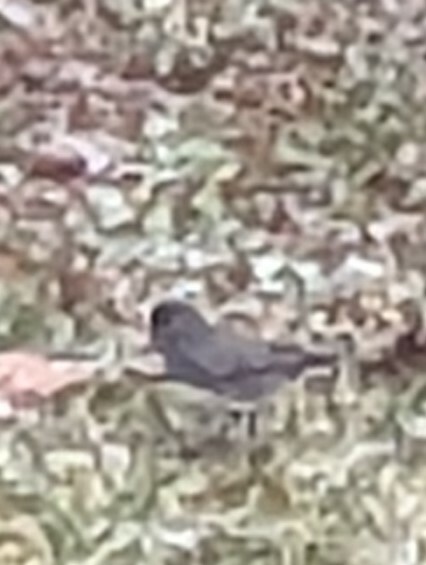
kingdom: Animalia
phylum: Chordata
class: Aves
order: Passeriformes
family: Passerellidae
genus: Junco
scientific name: Junco hyemalis
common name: Dark-eyed junco
